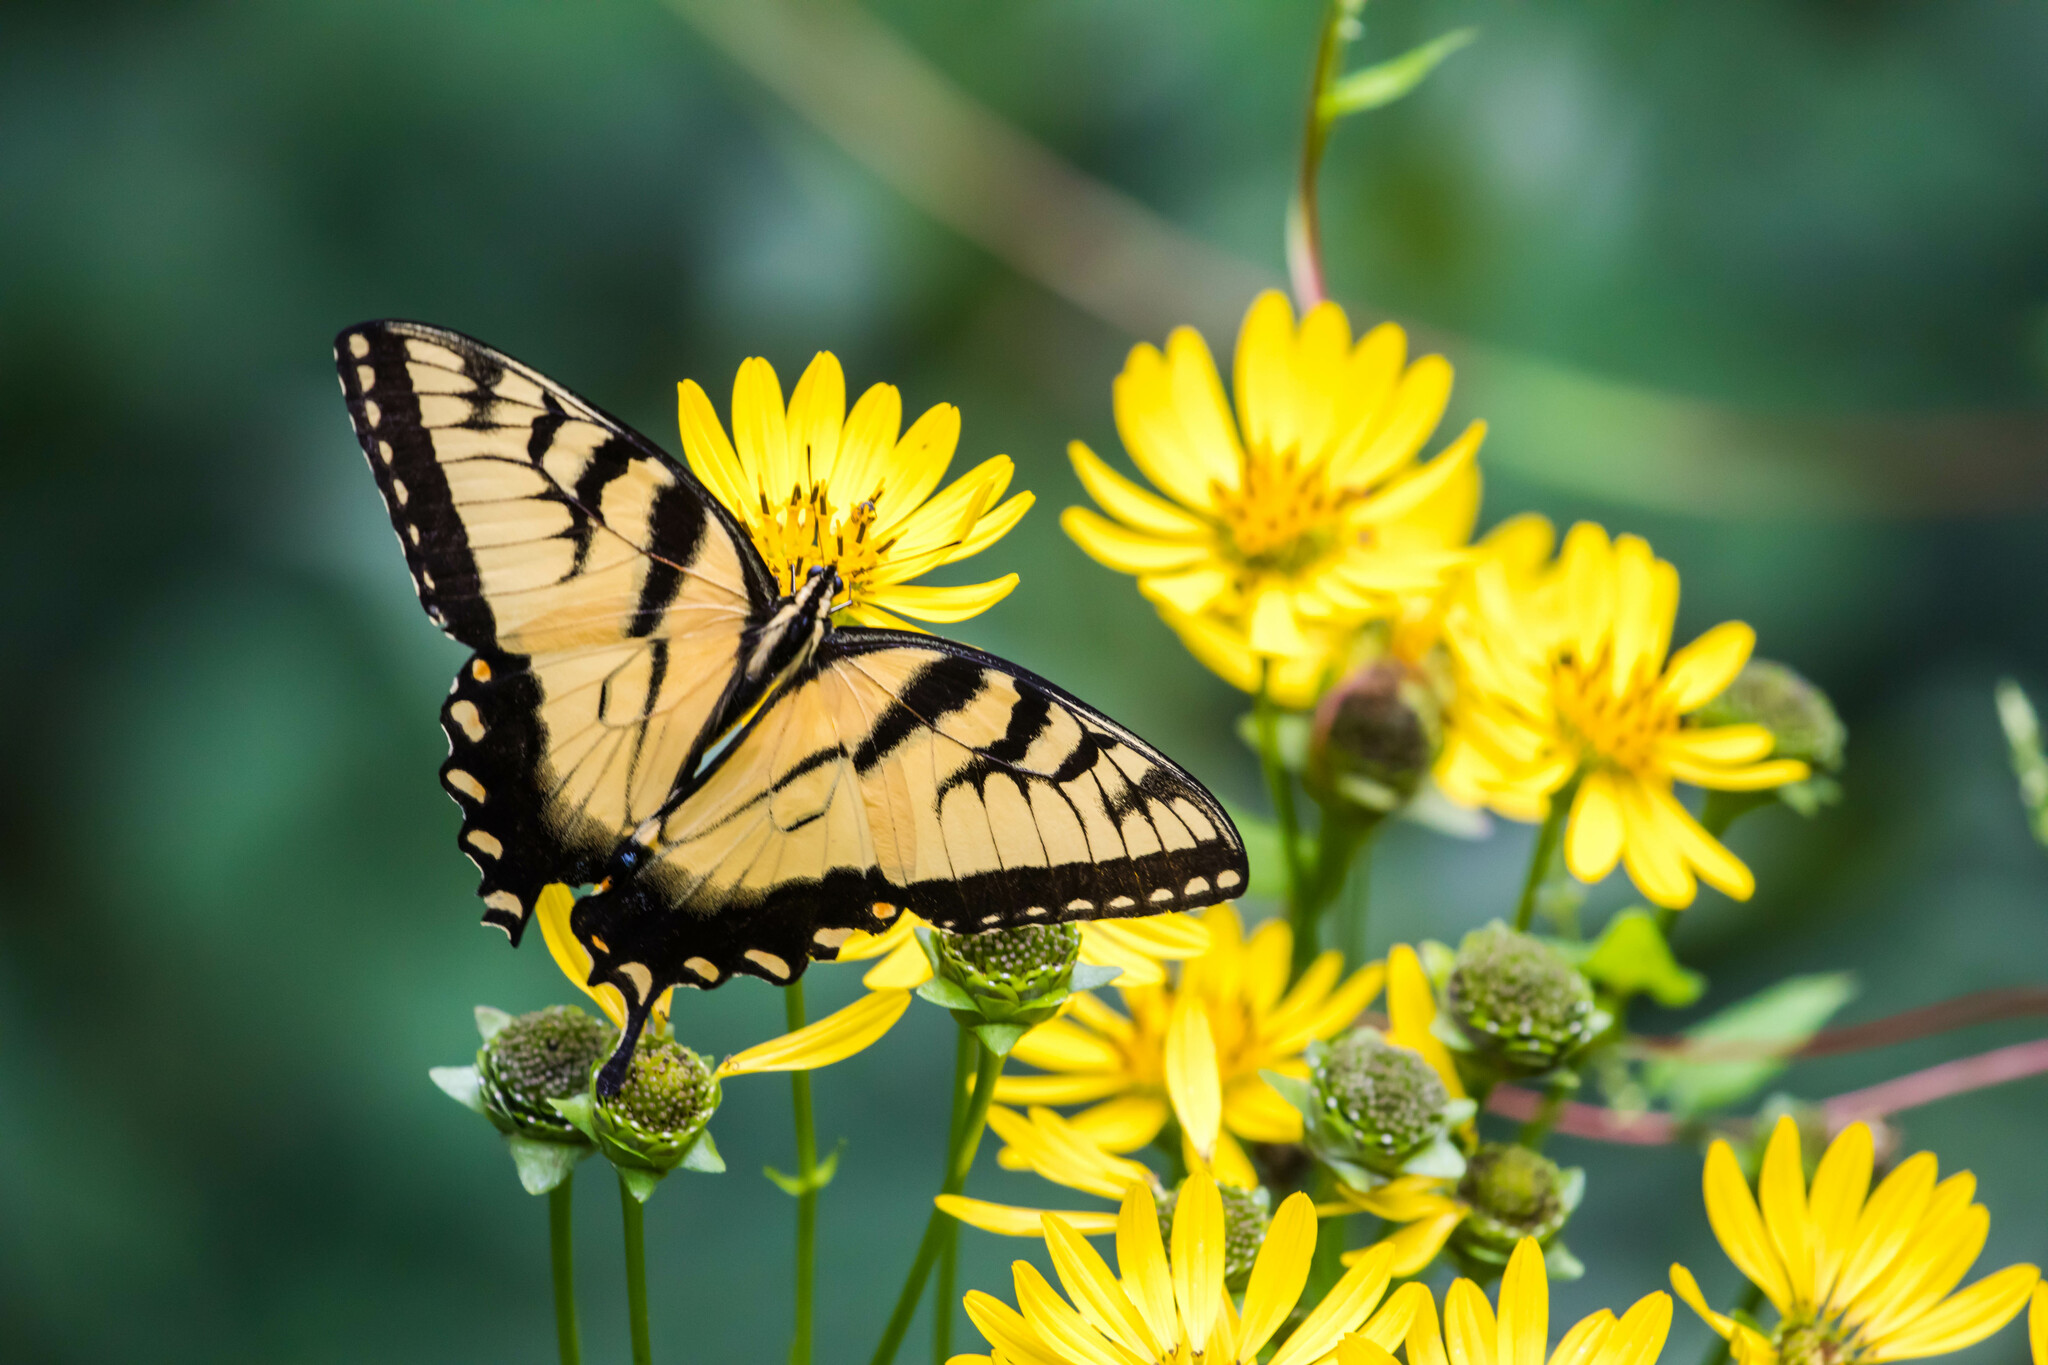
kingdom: Animalia
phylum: Arthropoda
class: Insecta
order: Lepidoptera
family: Papilionidae
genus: Papilio
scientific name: Papilio glaucus
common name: Tiger swallowtail
